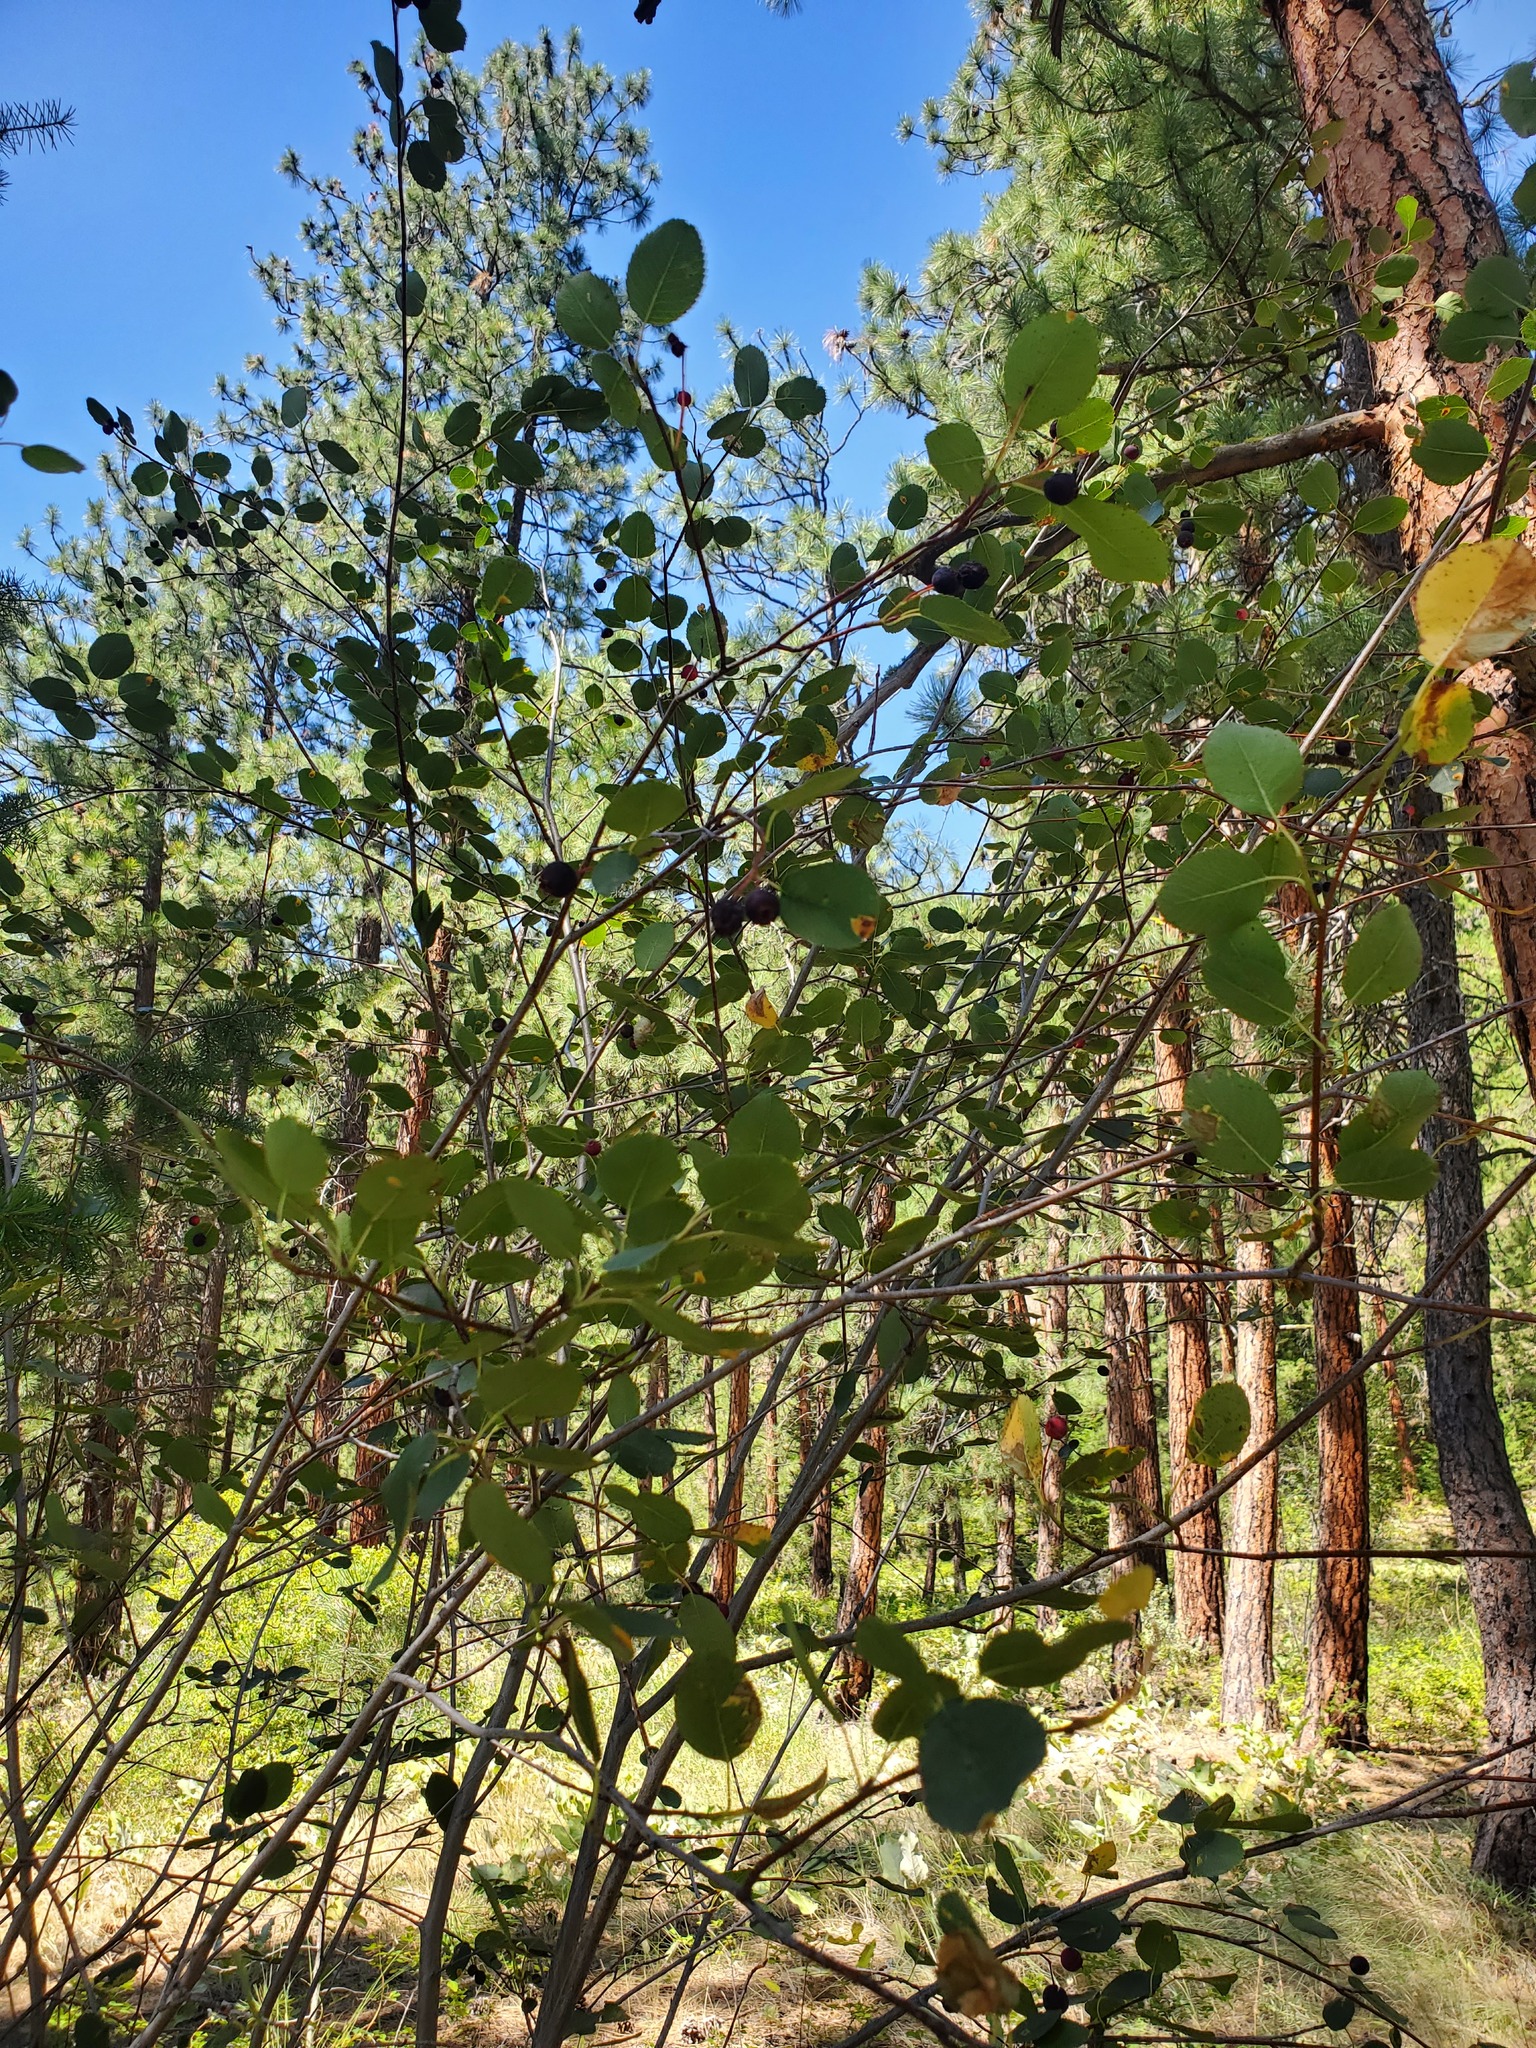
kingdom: Plantae
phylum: Tracheophyta
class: Magnoliopsida
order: Rosales
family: Rosaceae
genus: Amelanchier
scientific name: Amelanchier alnifolia
